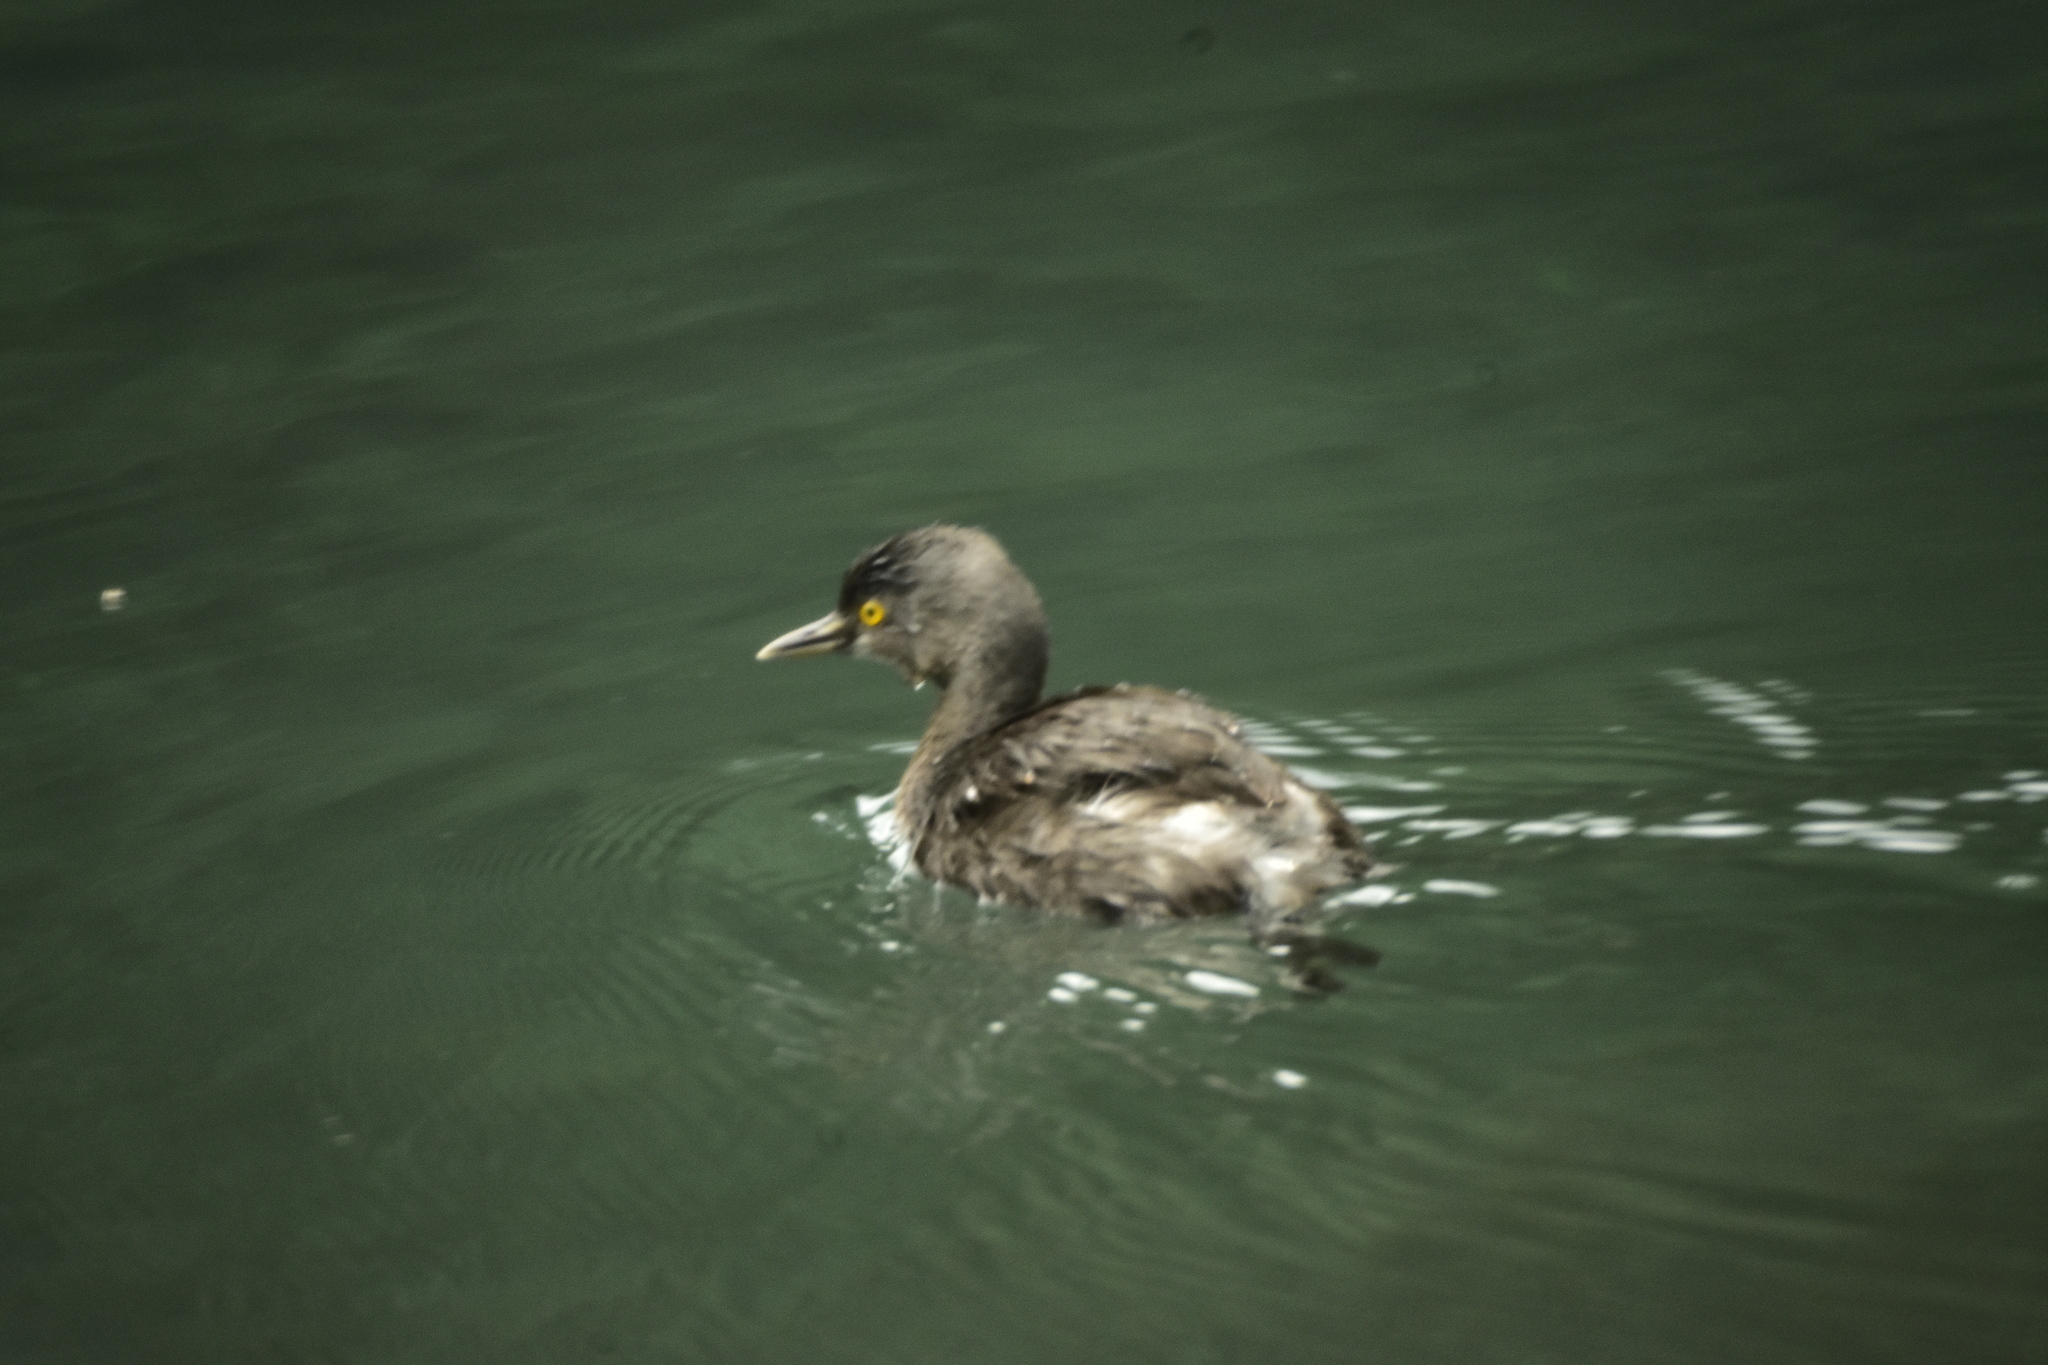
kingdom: Animalia
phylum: Chordata
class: Aves
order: Podicipediformes
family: Podicipedidae
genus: Tachybaptus
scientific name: Tachybaptus dominicus
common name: Least grebe
